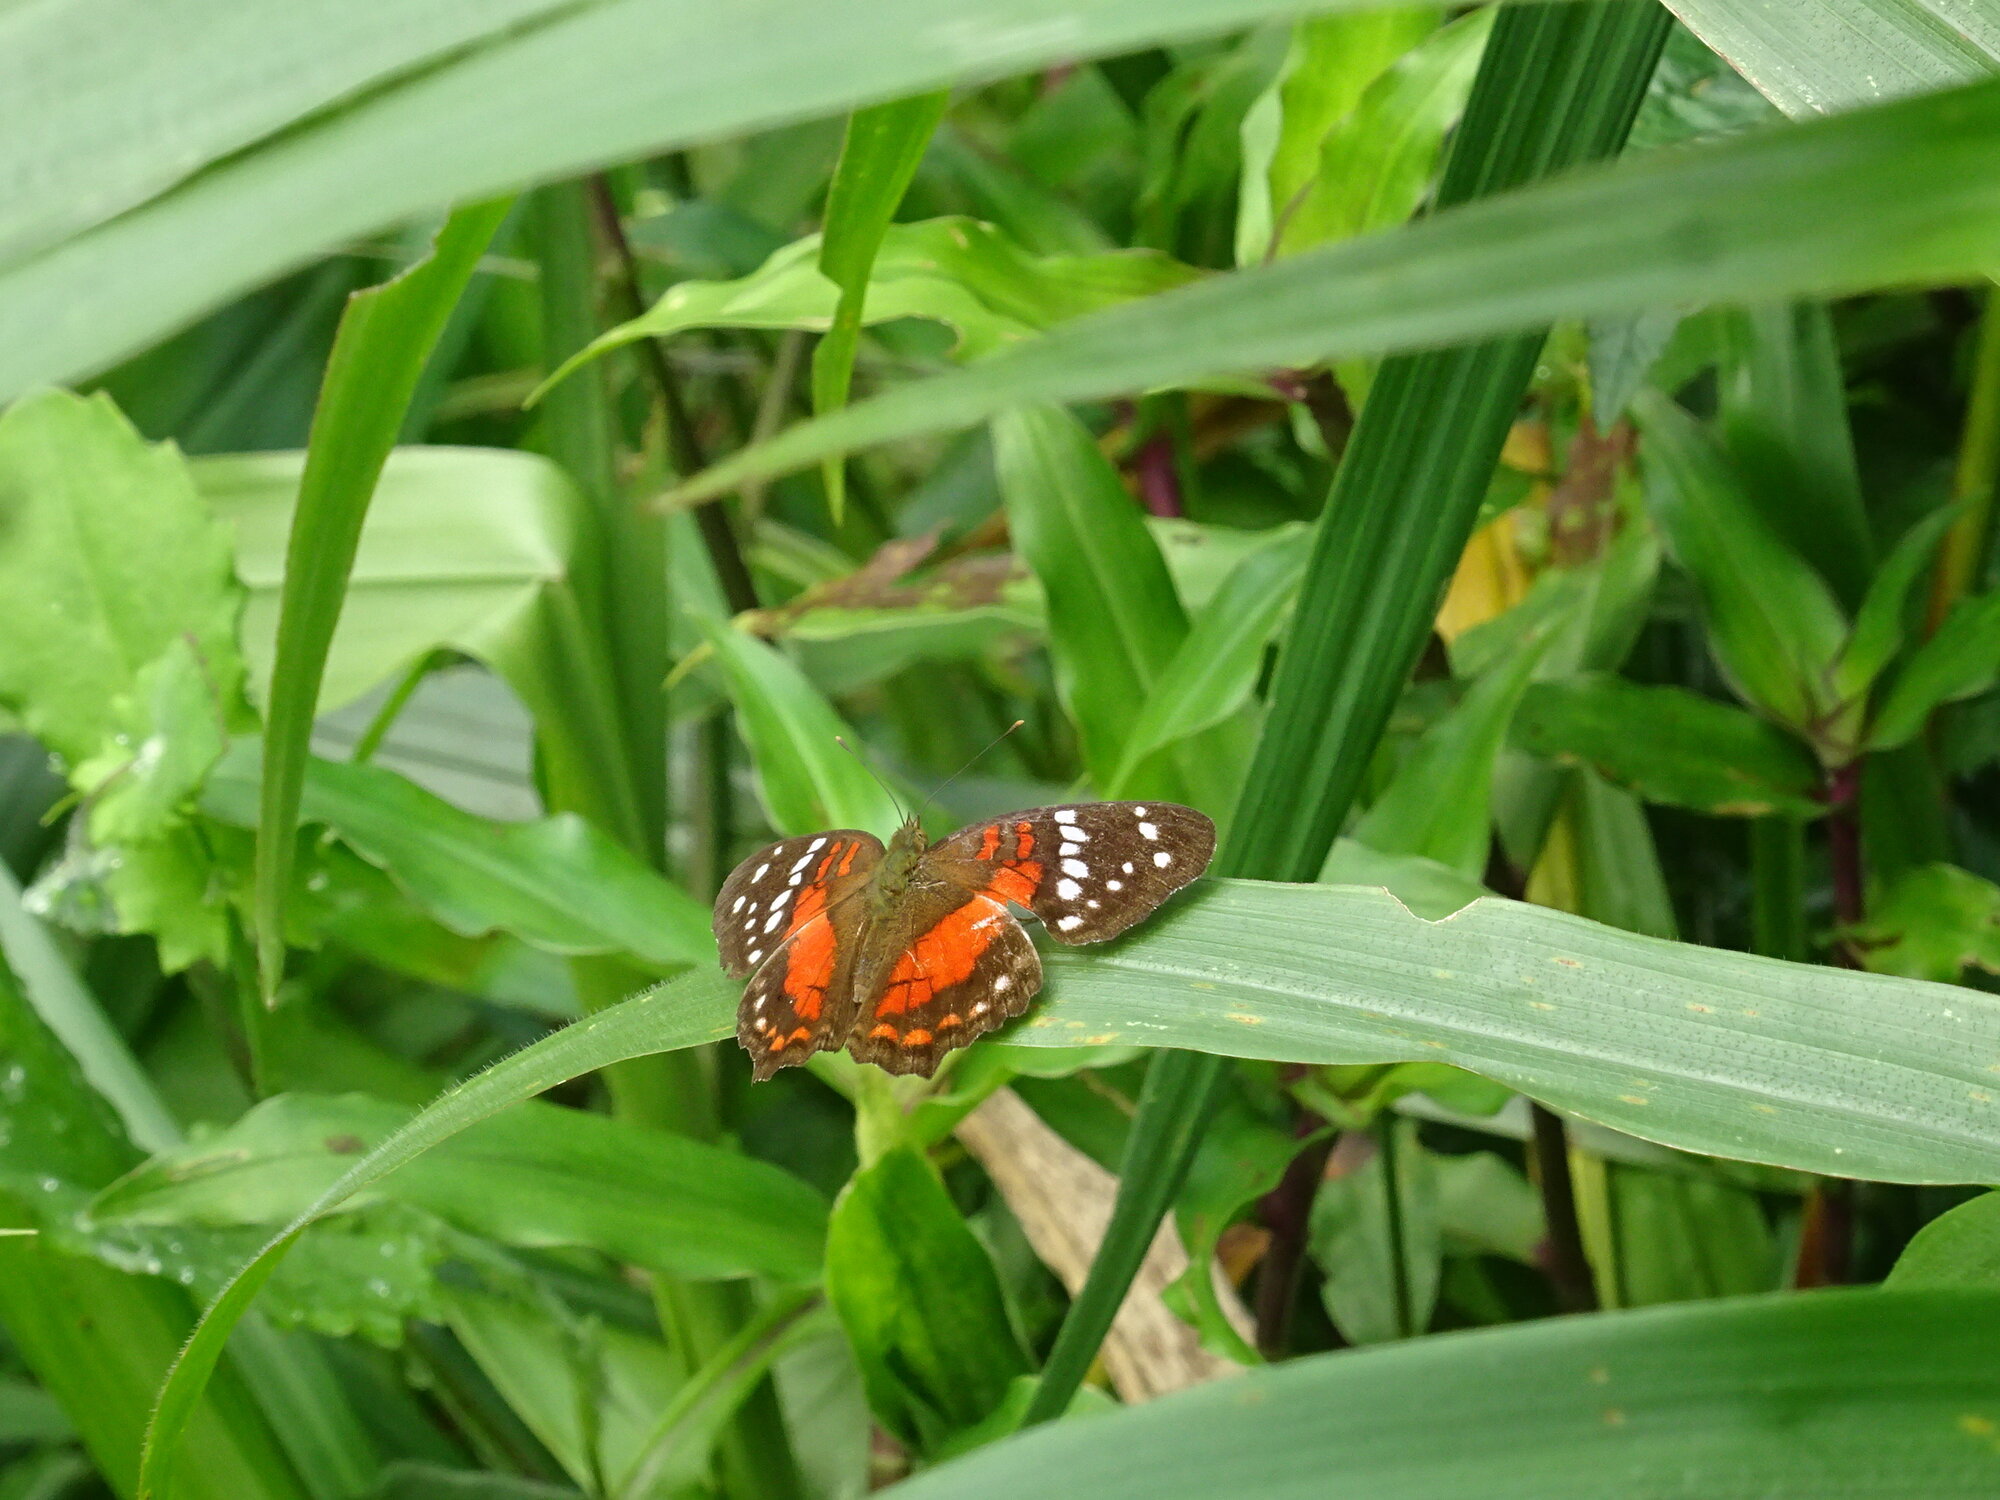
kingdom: Animalia
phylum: Arthropoda
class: Insecta
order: Lepidoptera
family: Nymphalidae
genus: Anartia
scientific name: Anartia amathea
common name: Red peacock
